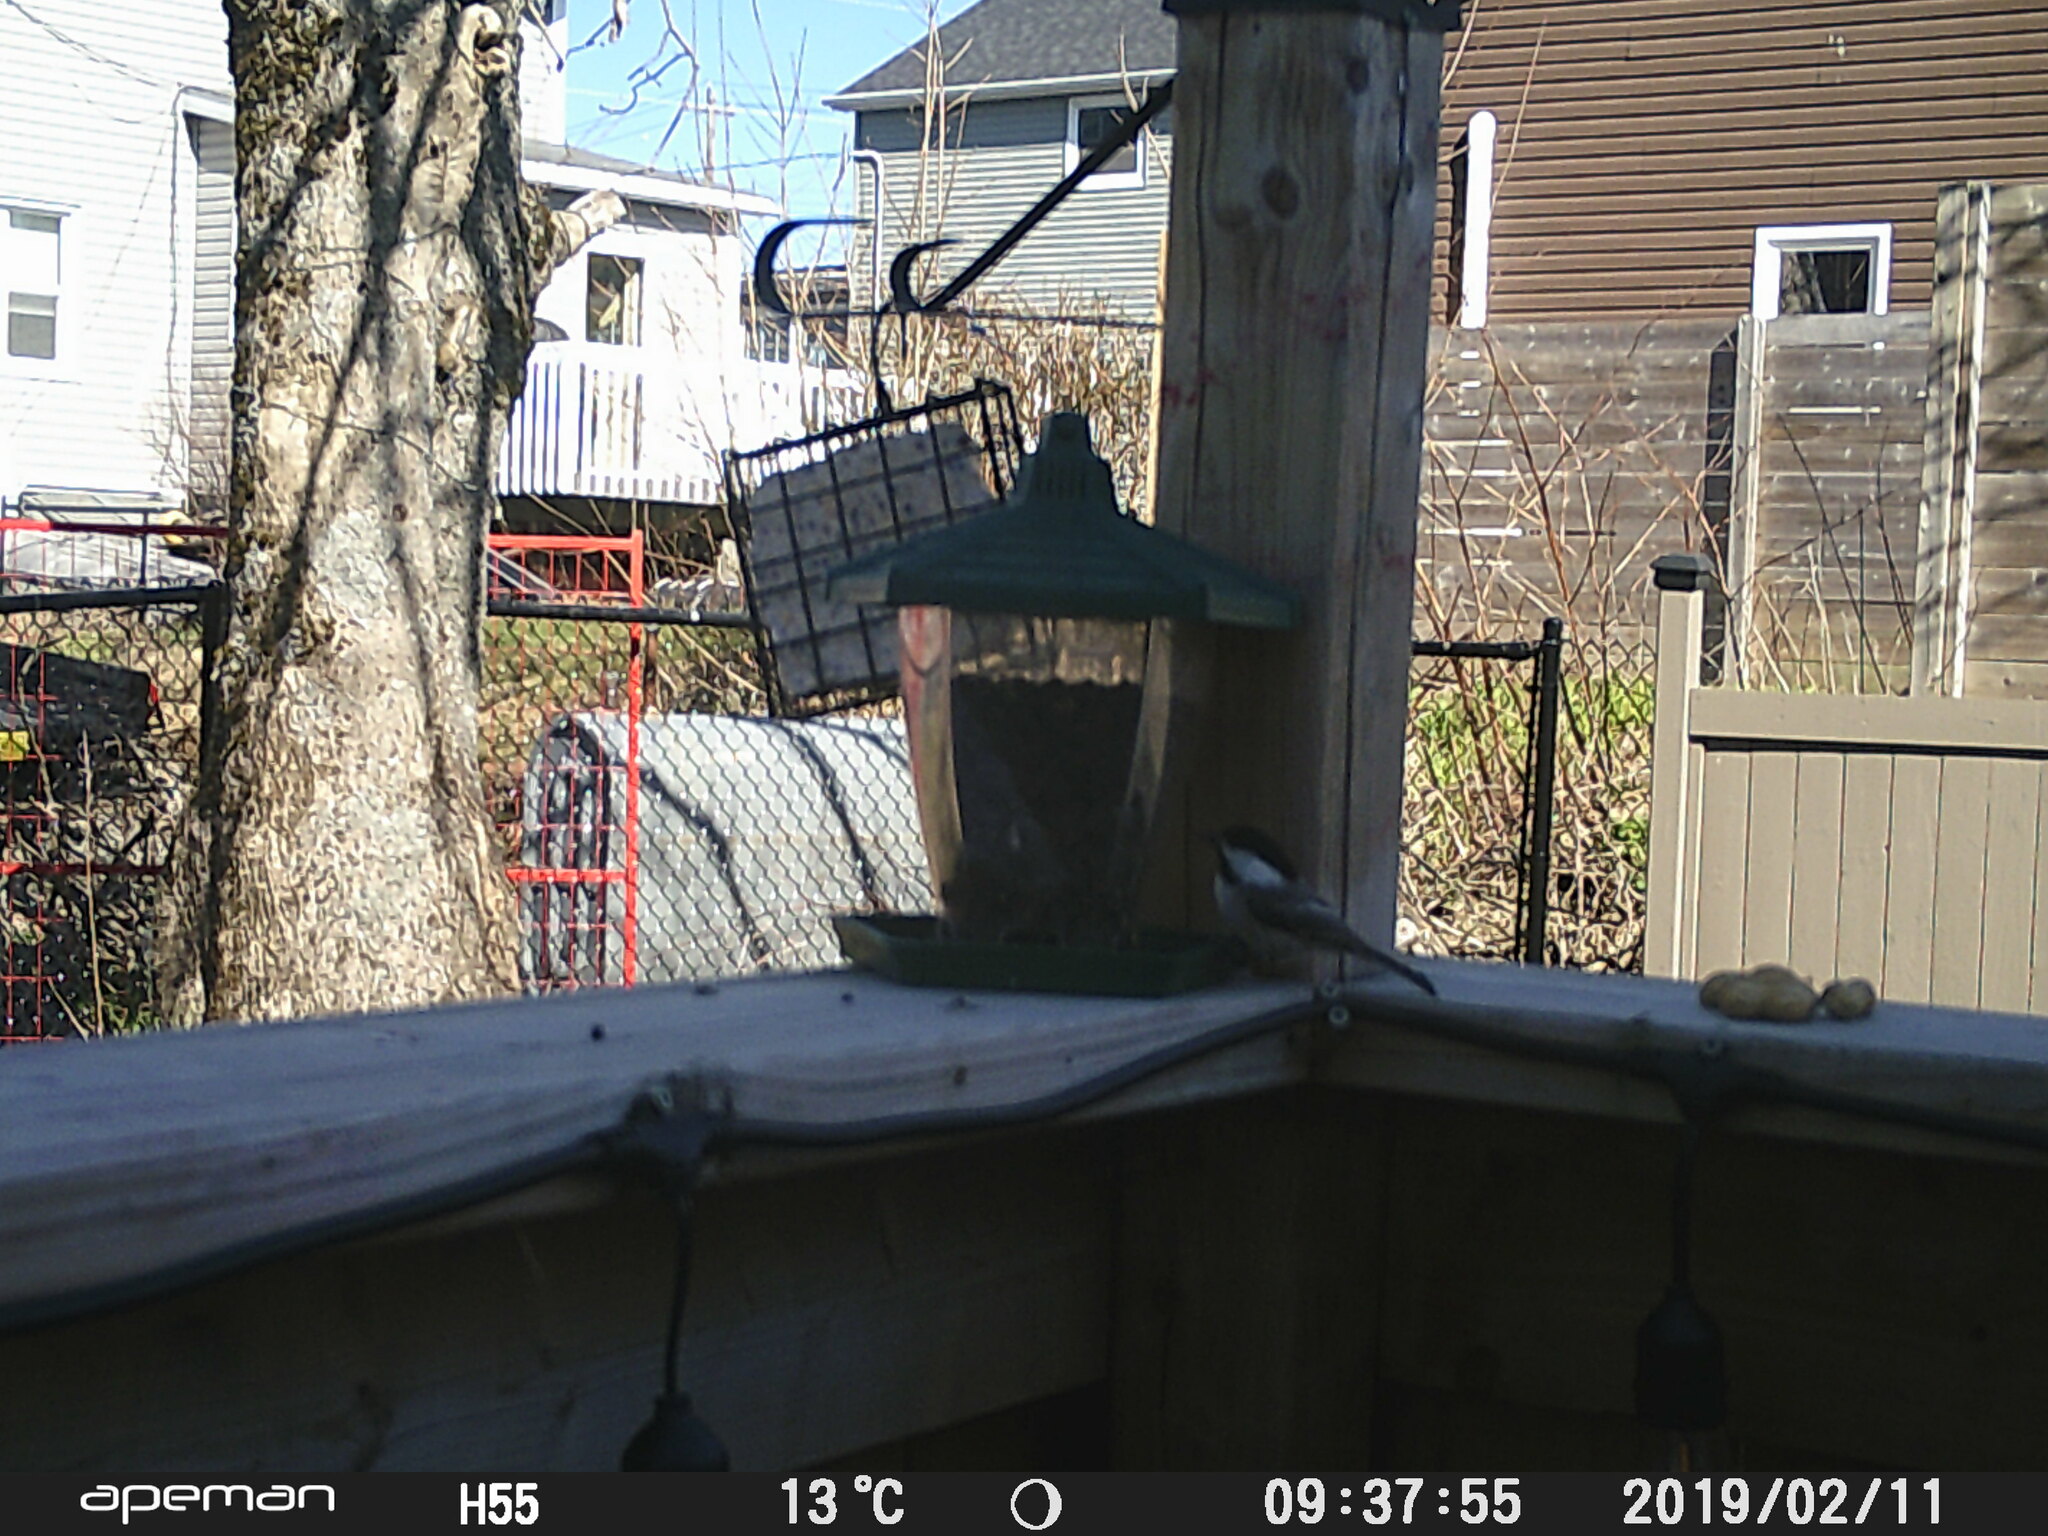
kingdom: Animalia
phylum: Chordata
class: Aves
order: Passeriformes
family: Paridae
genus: Poecile
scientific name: Poecile atricapillus
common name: Black-capped chickadee
